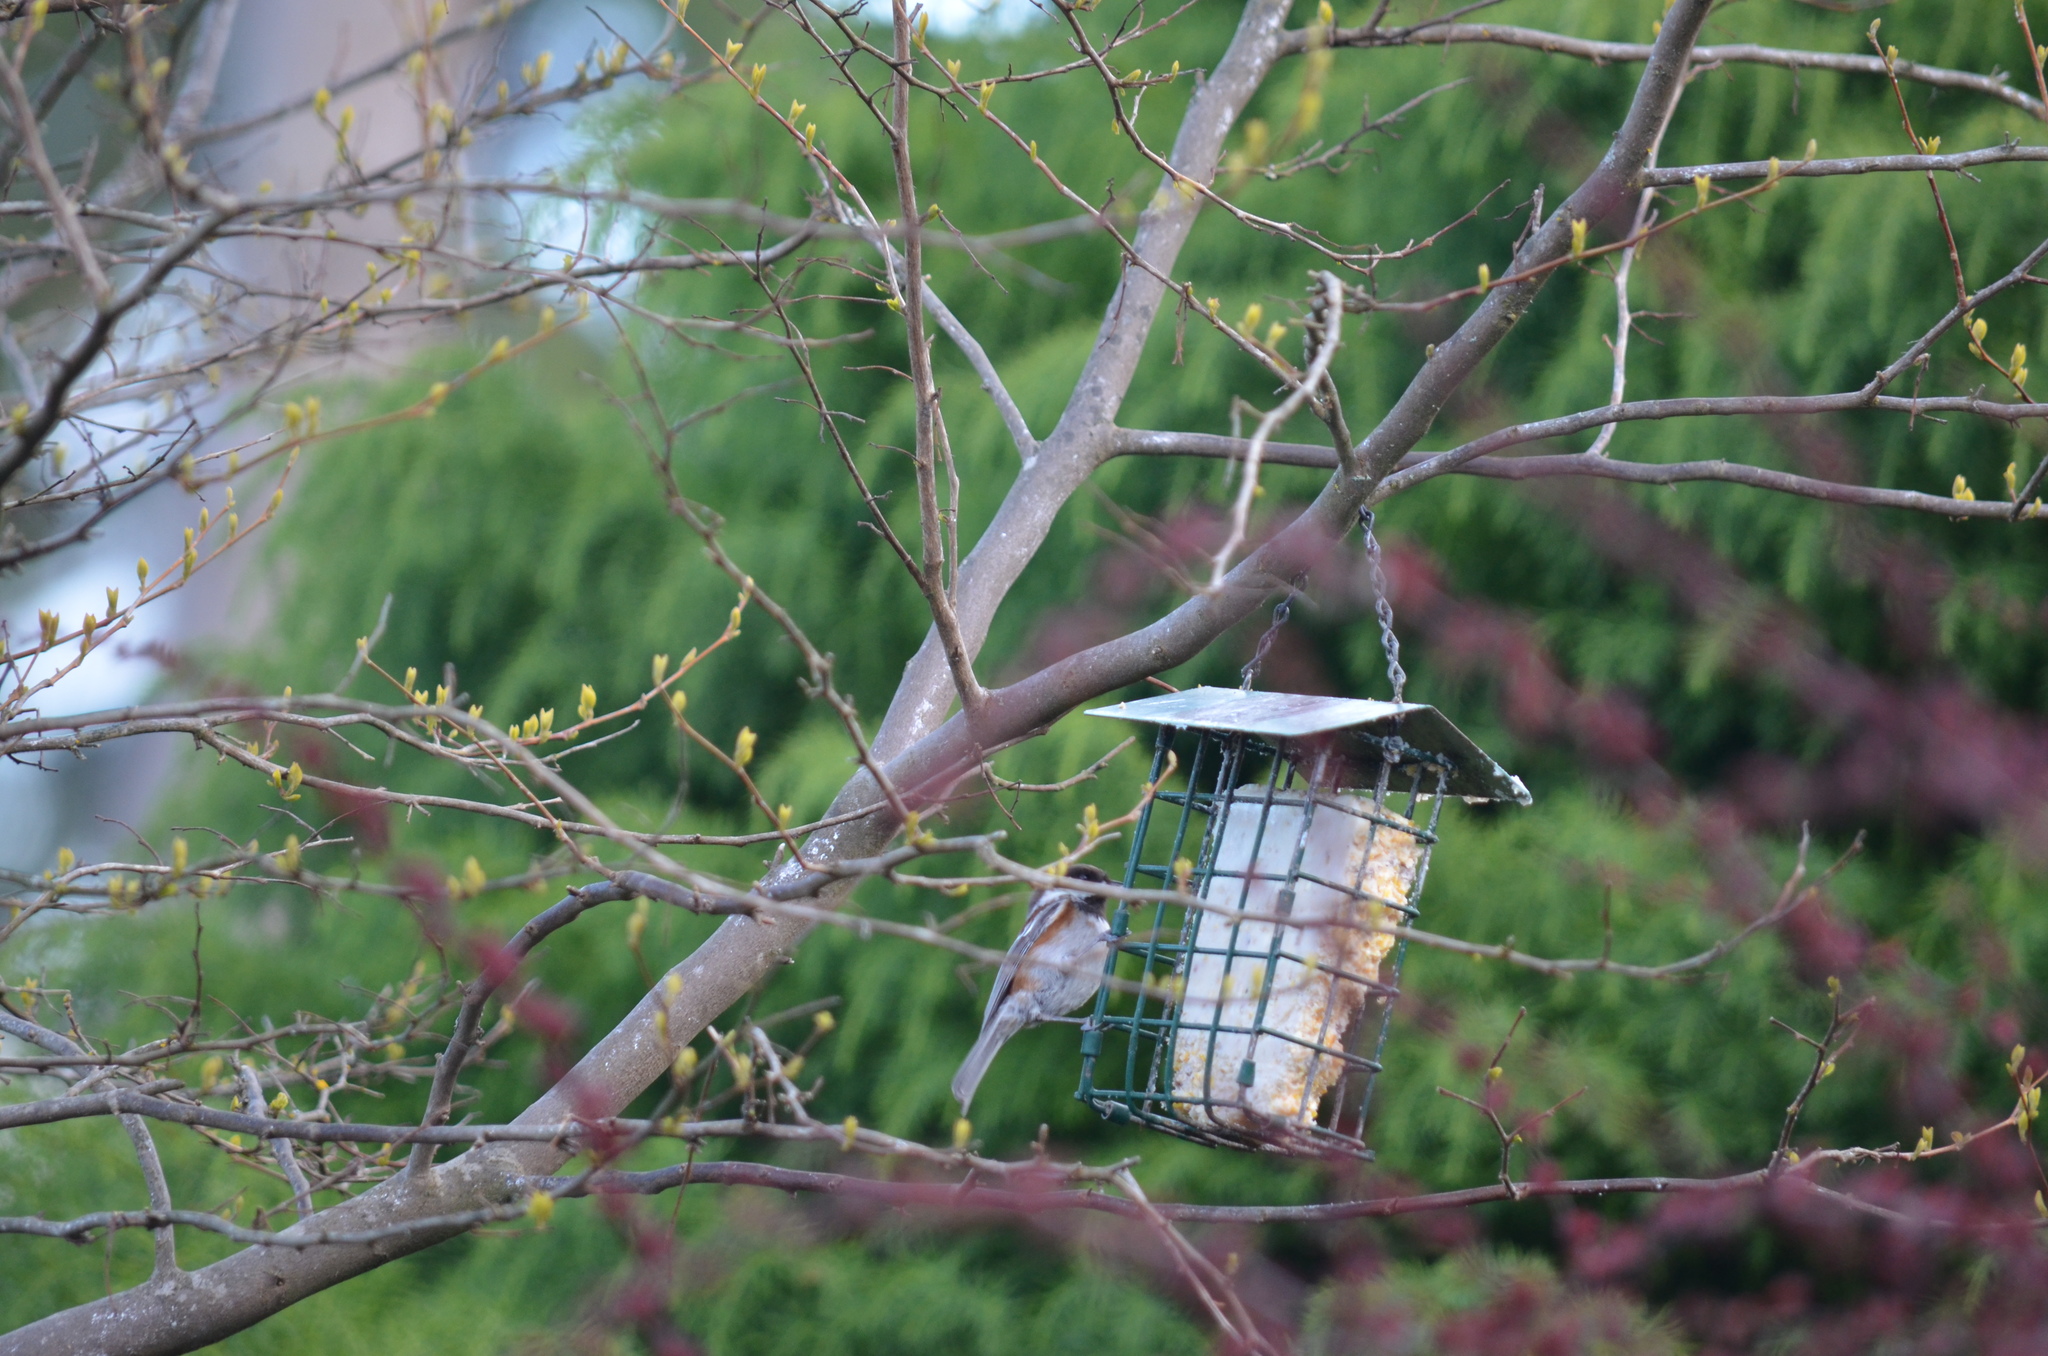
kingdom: Animalia
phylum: Chordata
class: Aves
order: Passeriformes
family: Paridae
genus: Poecile
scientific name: Poecile rufescens
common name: Chestnut-backed chickadee
